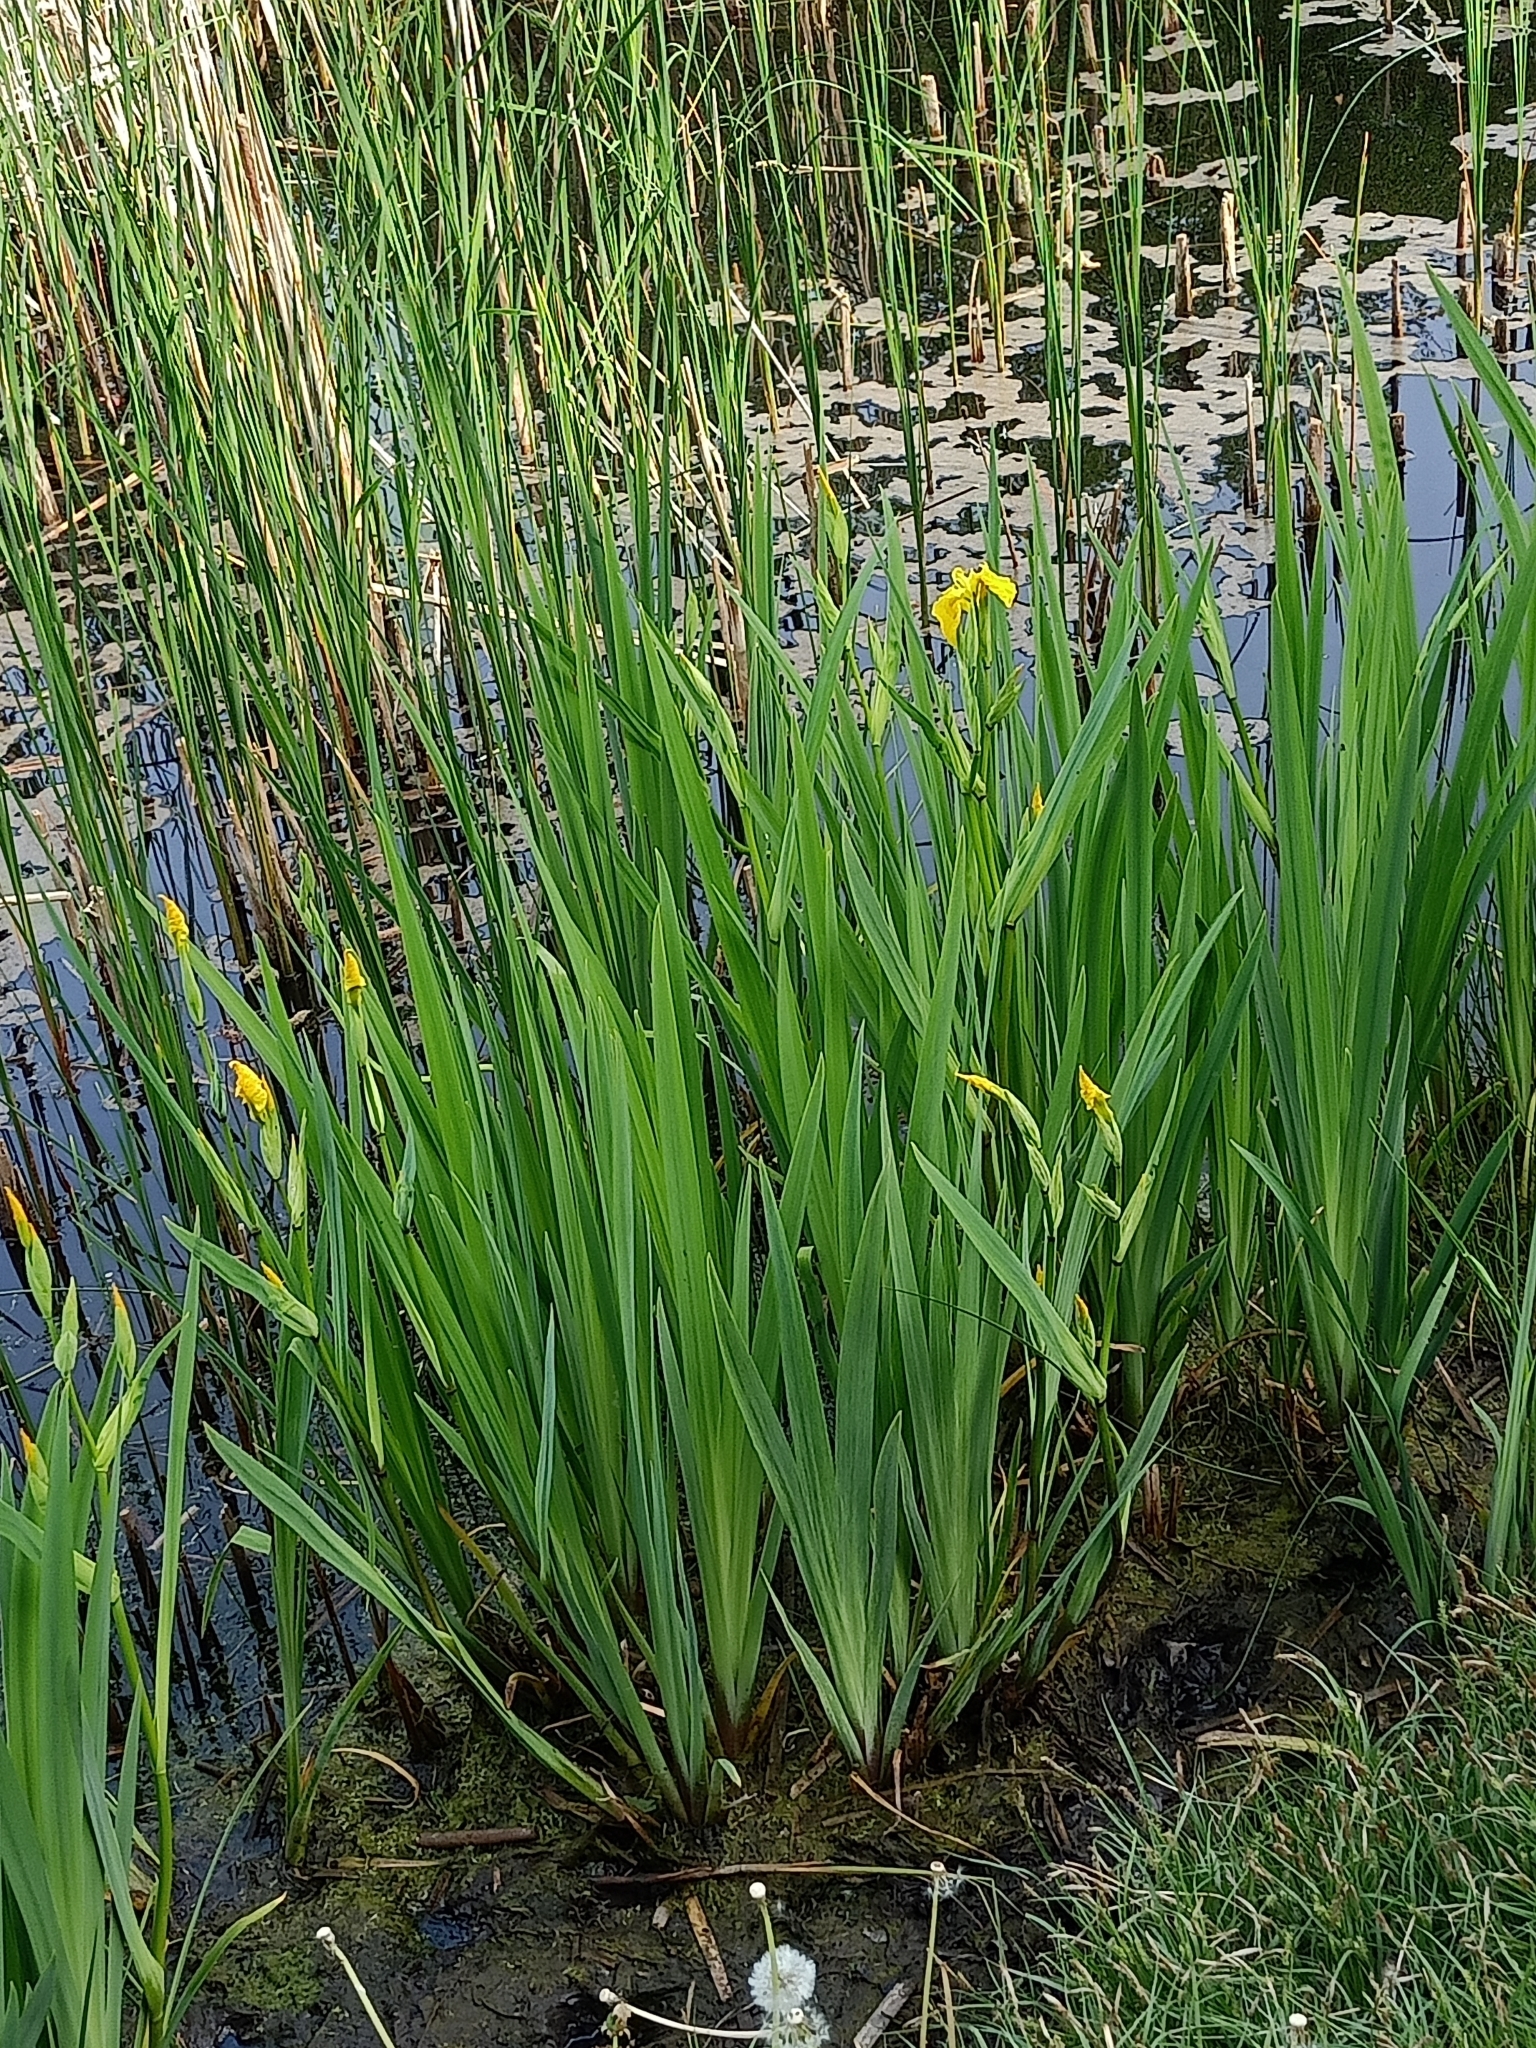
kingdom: Plantae
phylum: Tracheophyta
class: Liliopsida
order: Asparagales
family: Iridaceae
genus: Iris
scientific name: Iris pseudacorus
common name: Yellow flag
